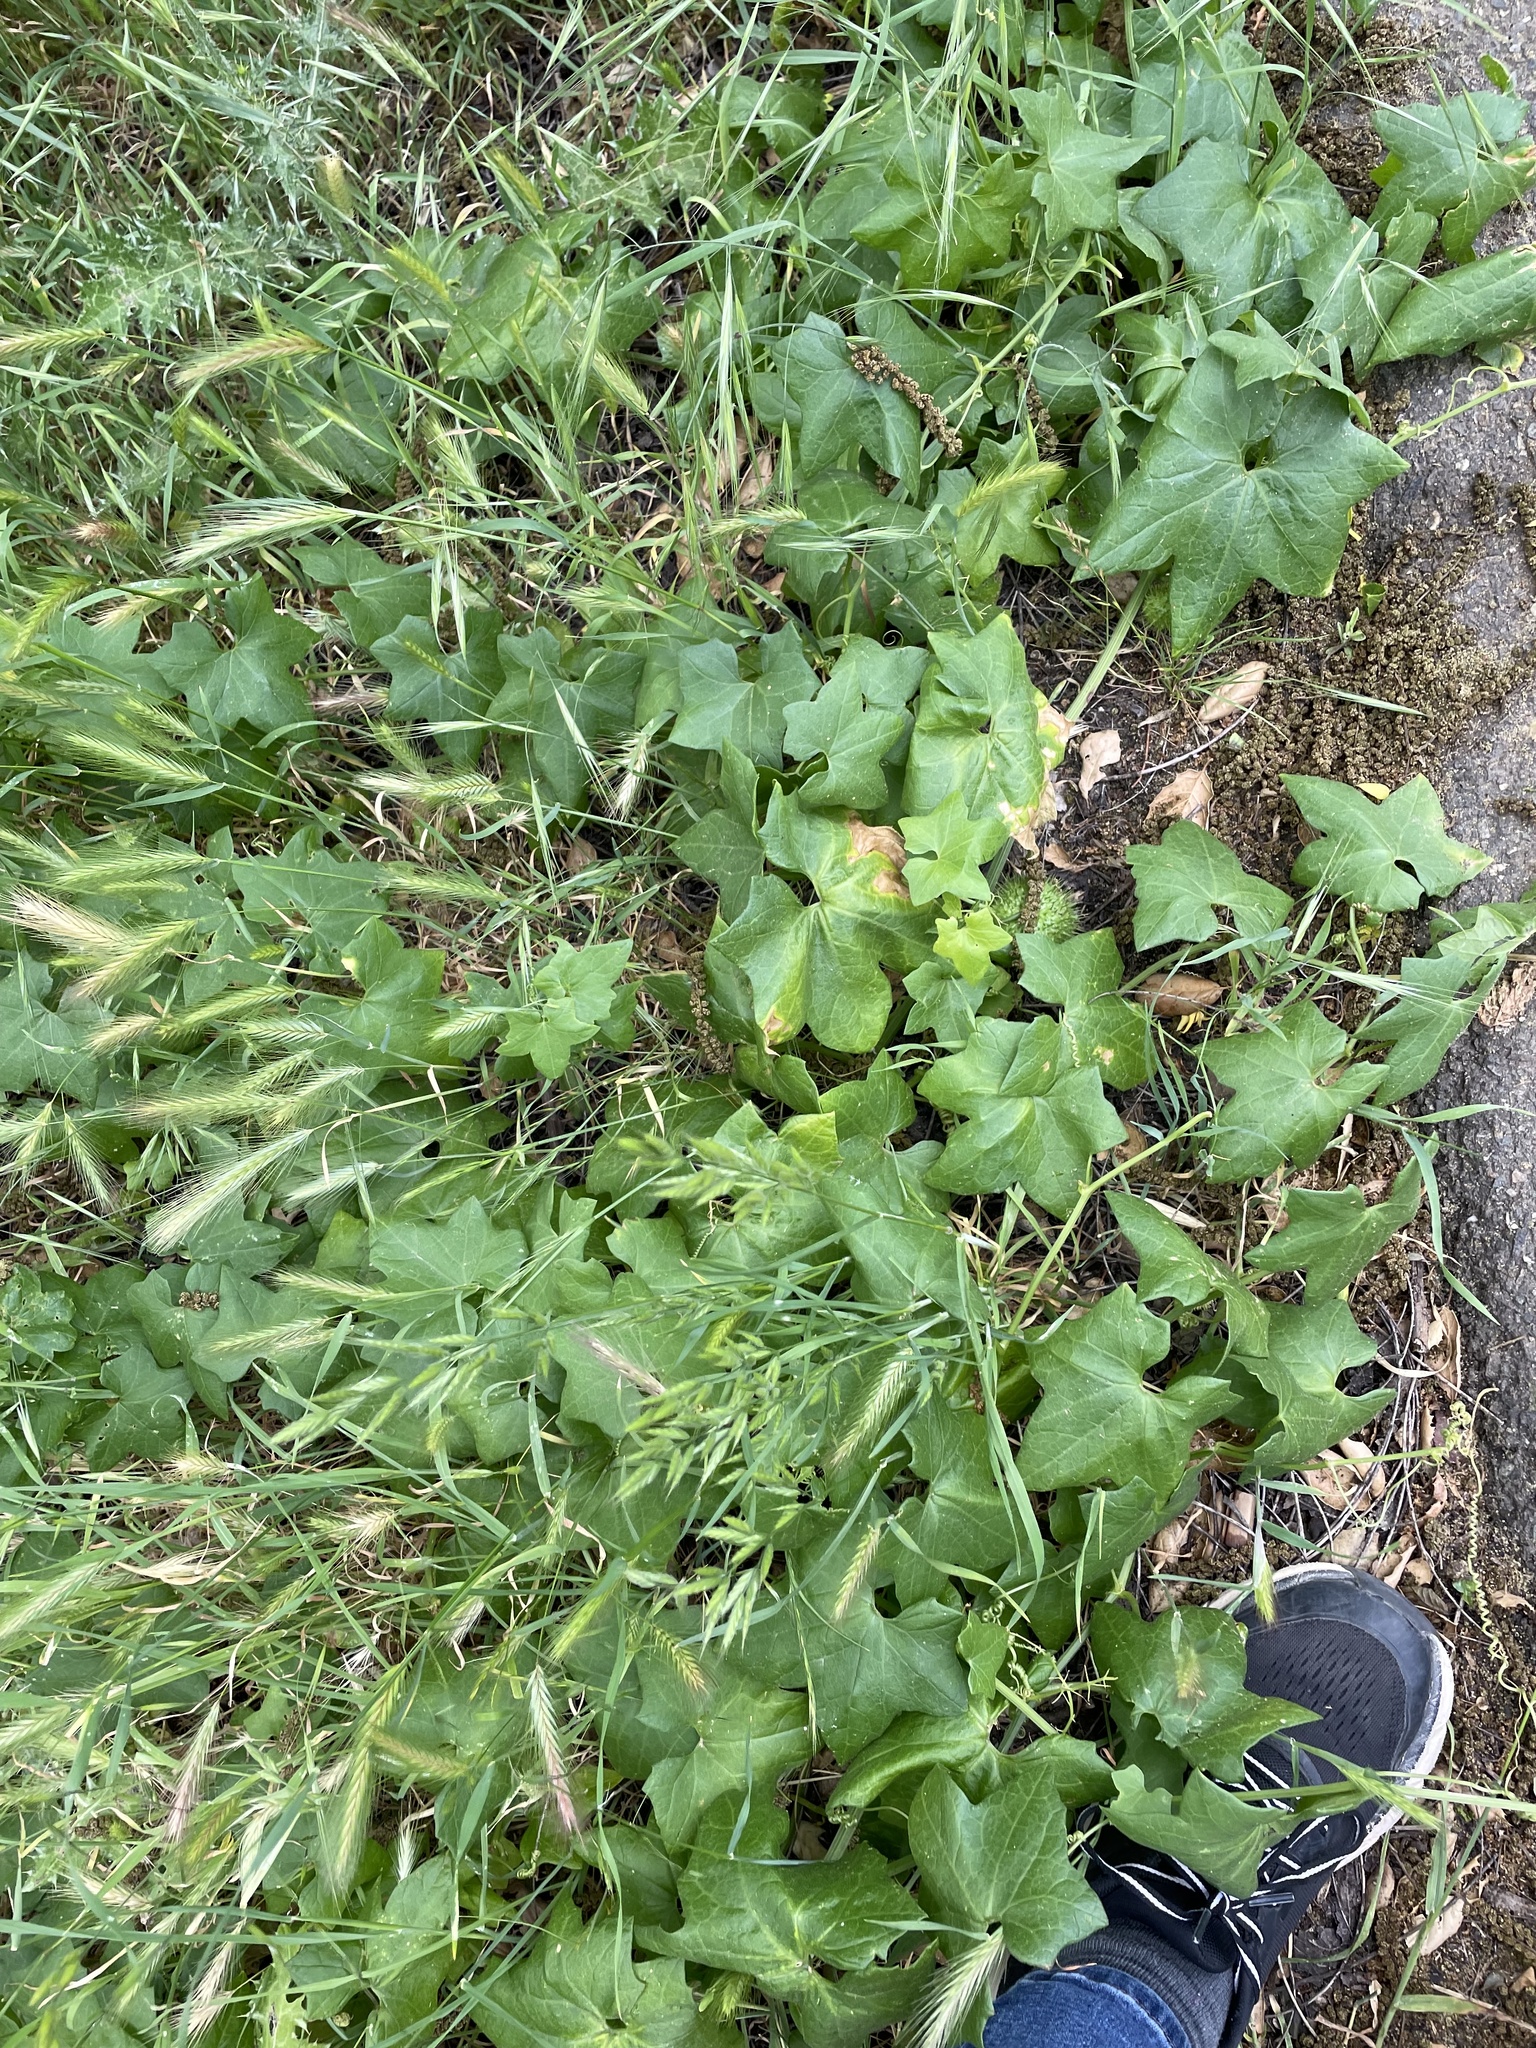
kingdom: Plantae
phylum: Tracheophyta
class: Magnoliopsida
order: Cucurbitales
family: Cucurbitaceae
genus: Marah
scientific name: Marah fabacea
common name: California manroot
